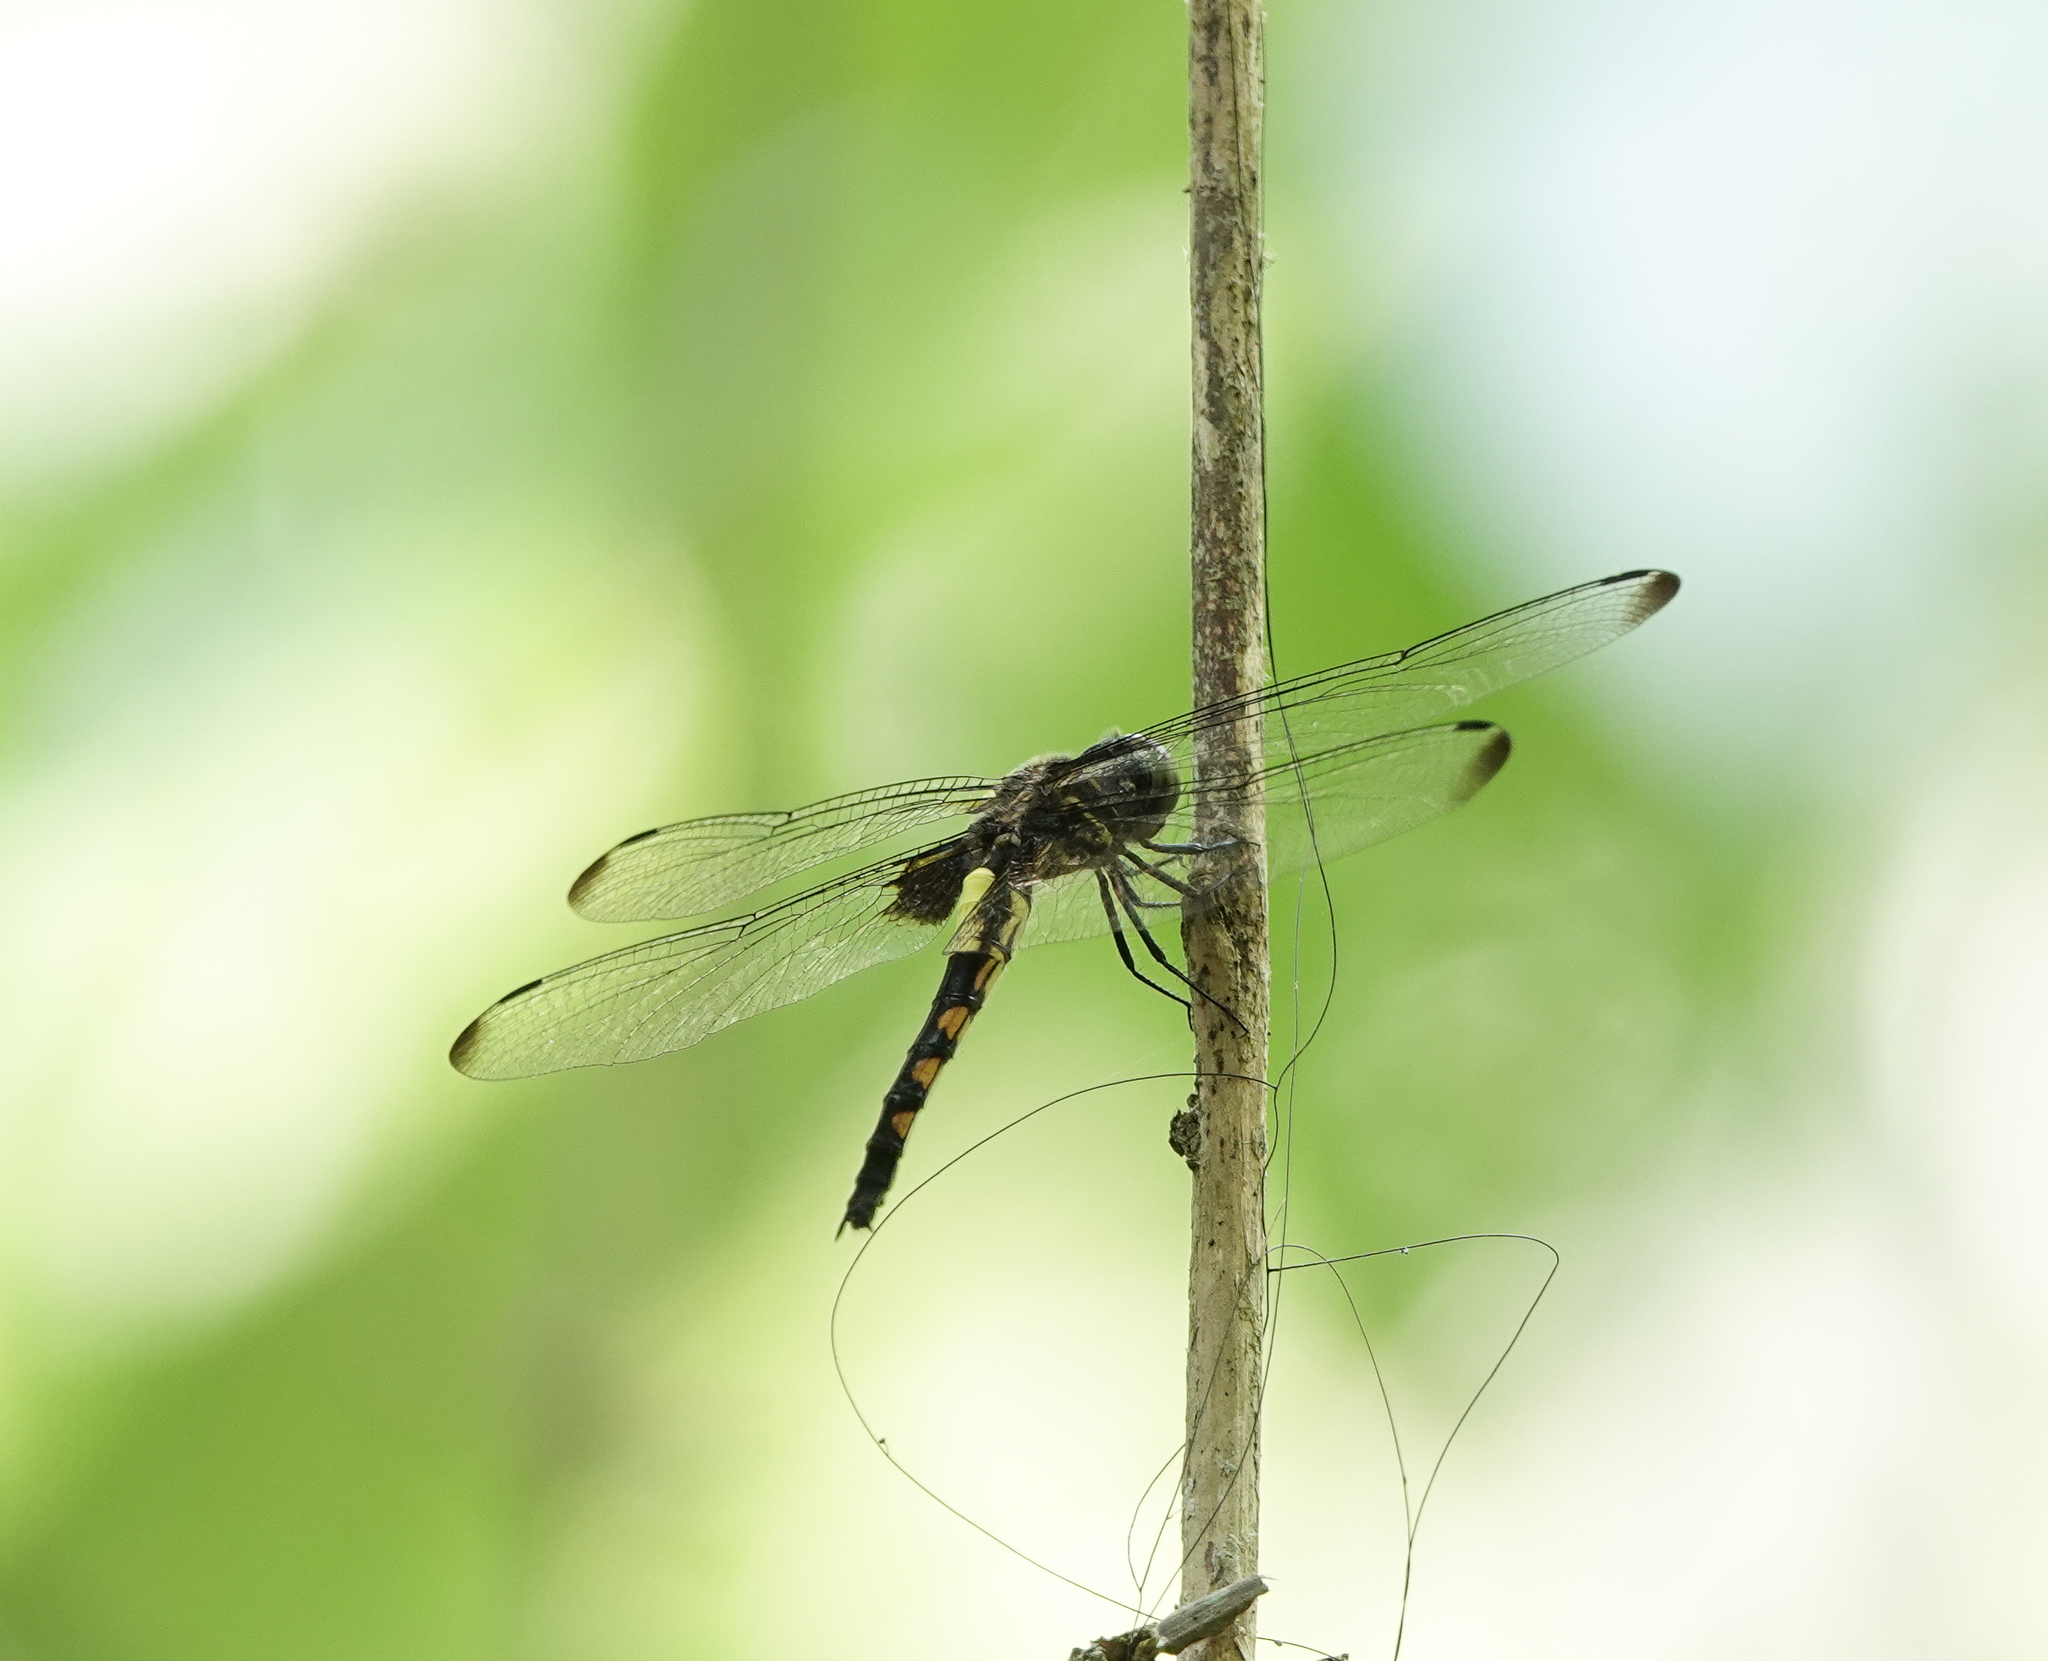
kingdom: Animalia
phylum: Arthropoda
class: Insecta
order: Odonata
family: Libellulidae
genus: Pseudothemis
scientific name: Pseudothemis zonata
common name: Pied skimmer
